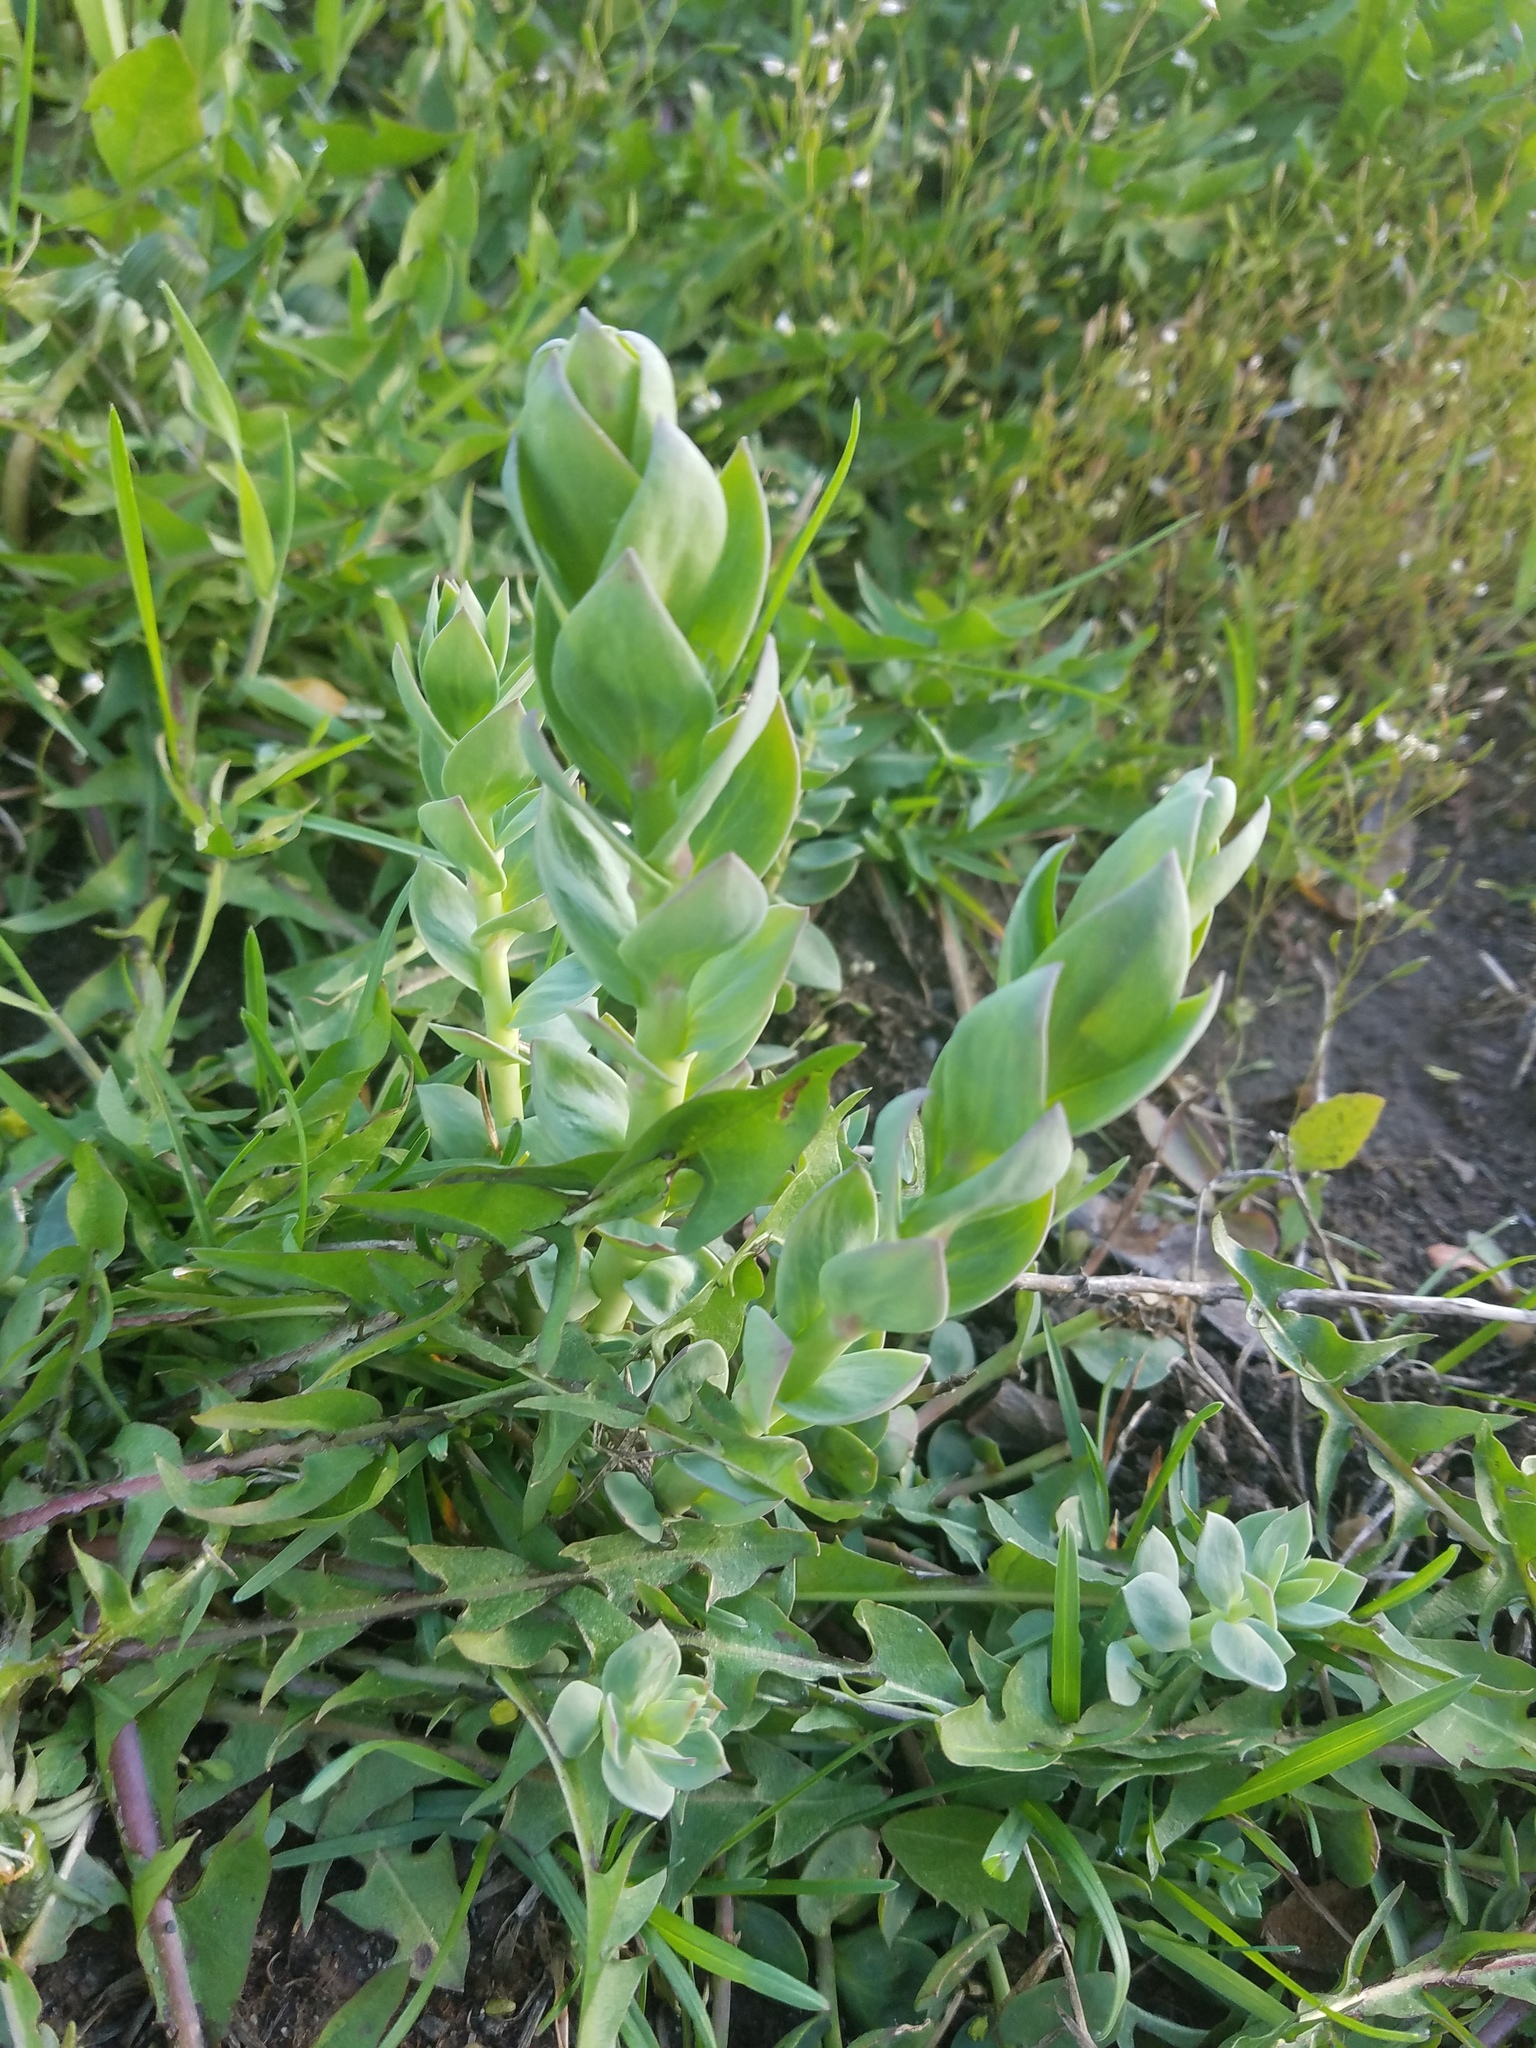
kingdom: Plantae
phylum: Tracheophyta
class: Magnoliopsida
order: Lamiales
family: Plantaginaceae
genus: Linaria
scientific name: Linaria dalmatica
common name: Dalmatian toadflax
